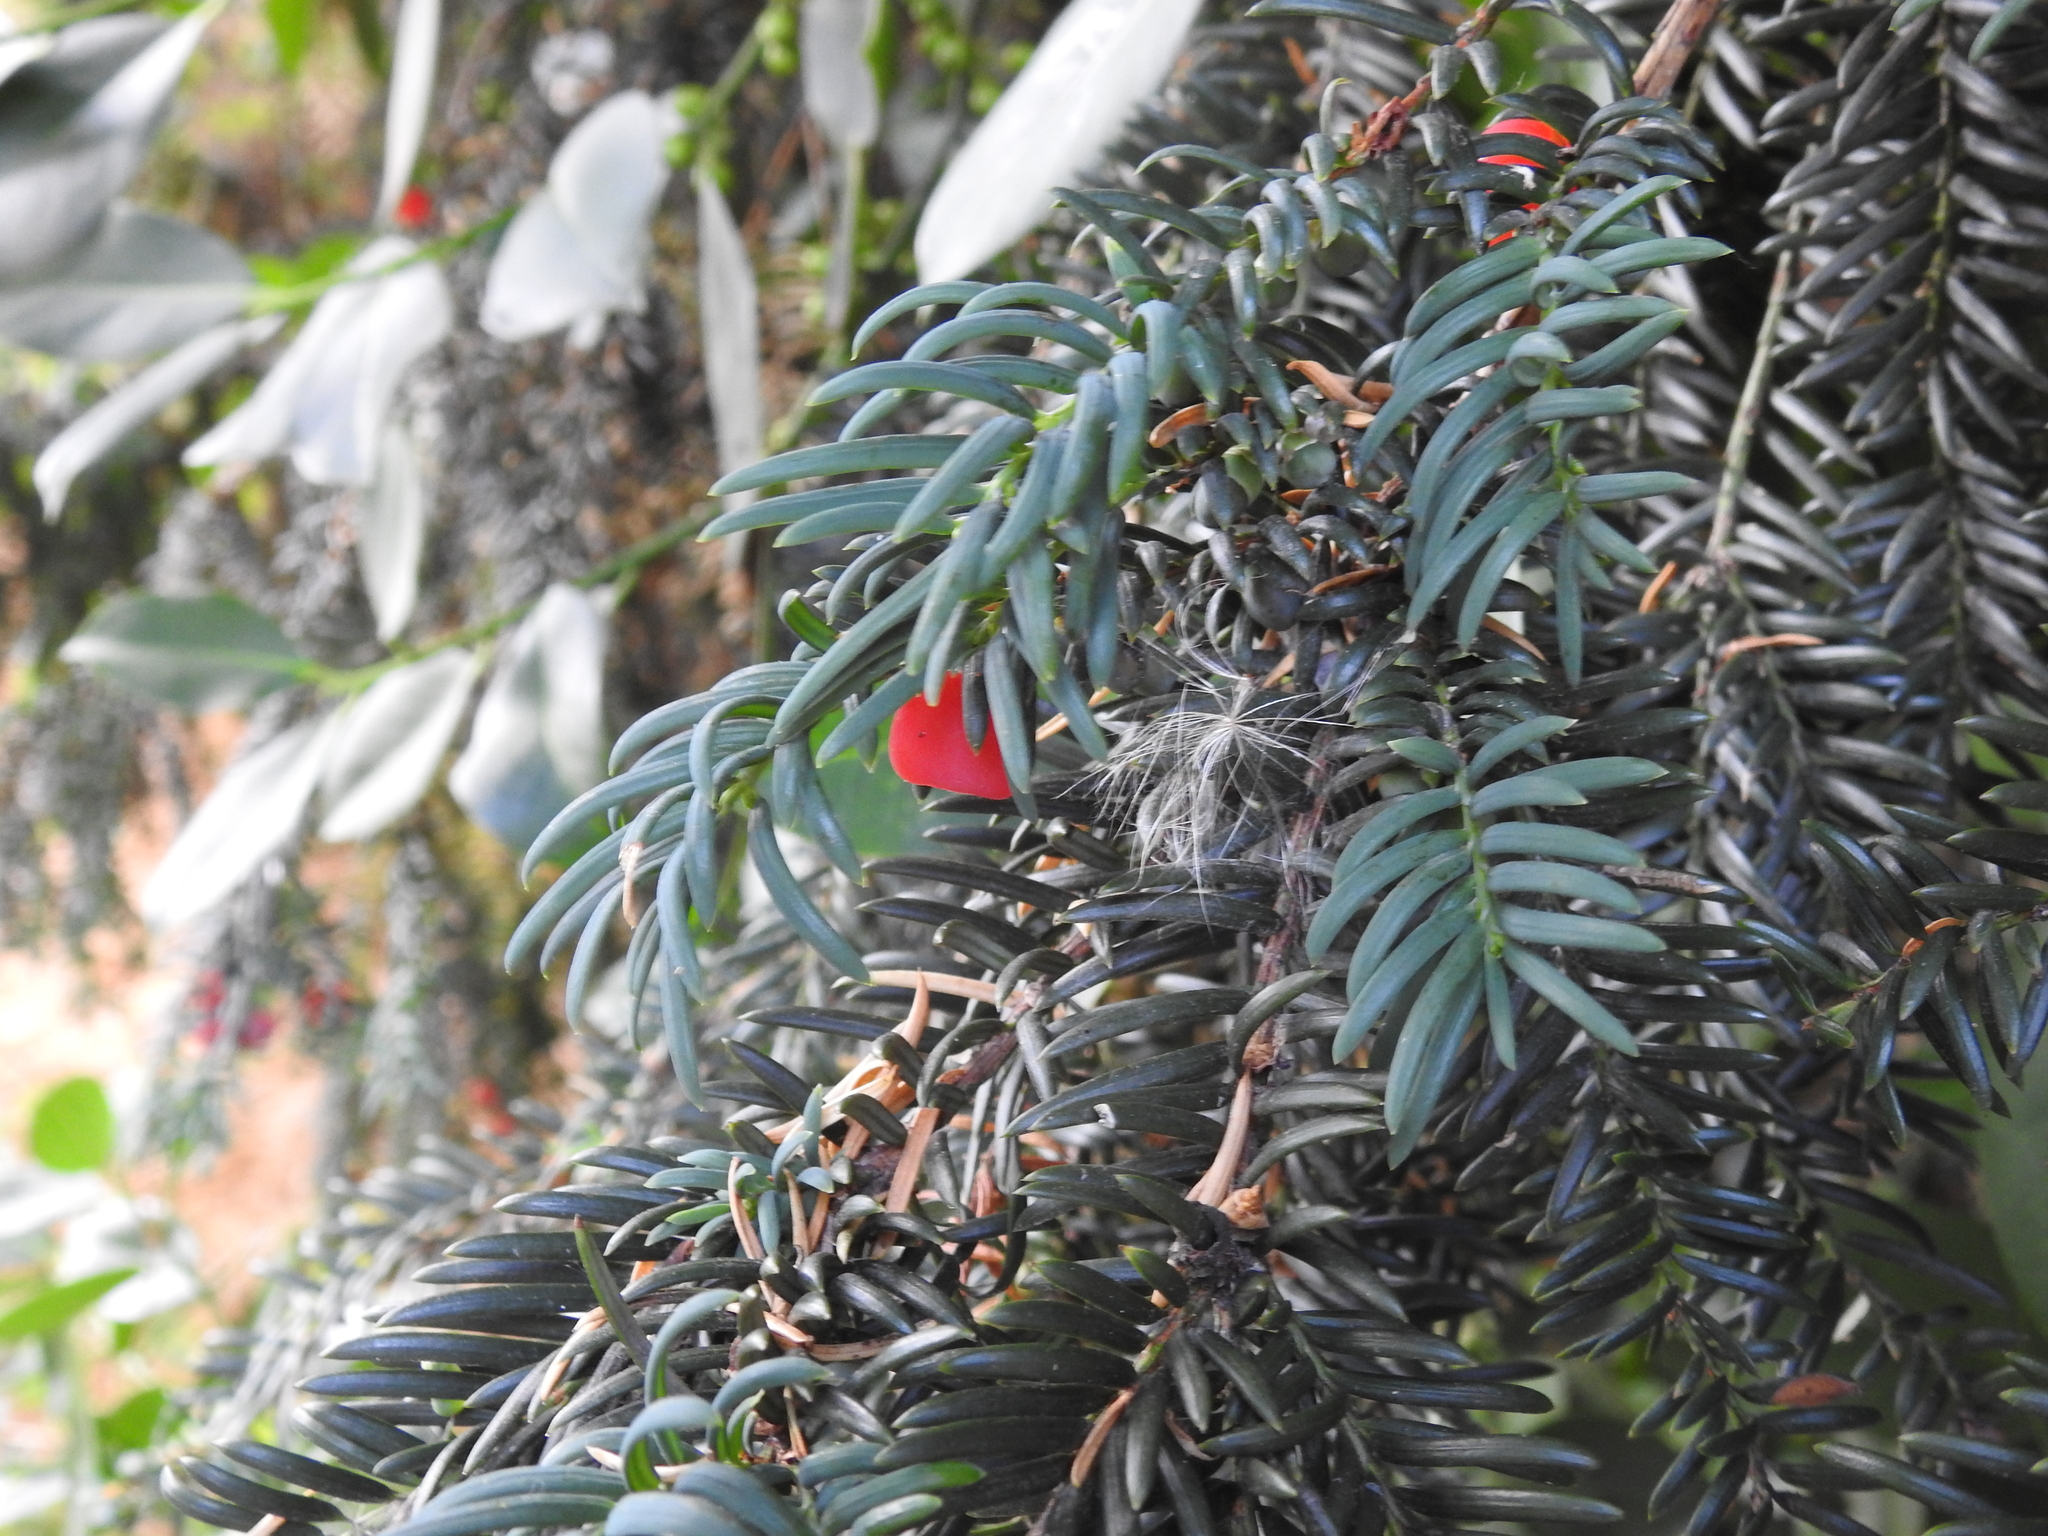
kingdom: Plantae
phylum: Tracheophyta
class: Pinopsida
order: Pinales
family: Taxaceae
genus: Taxus
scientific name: Taxus baccata
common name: Yew
